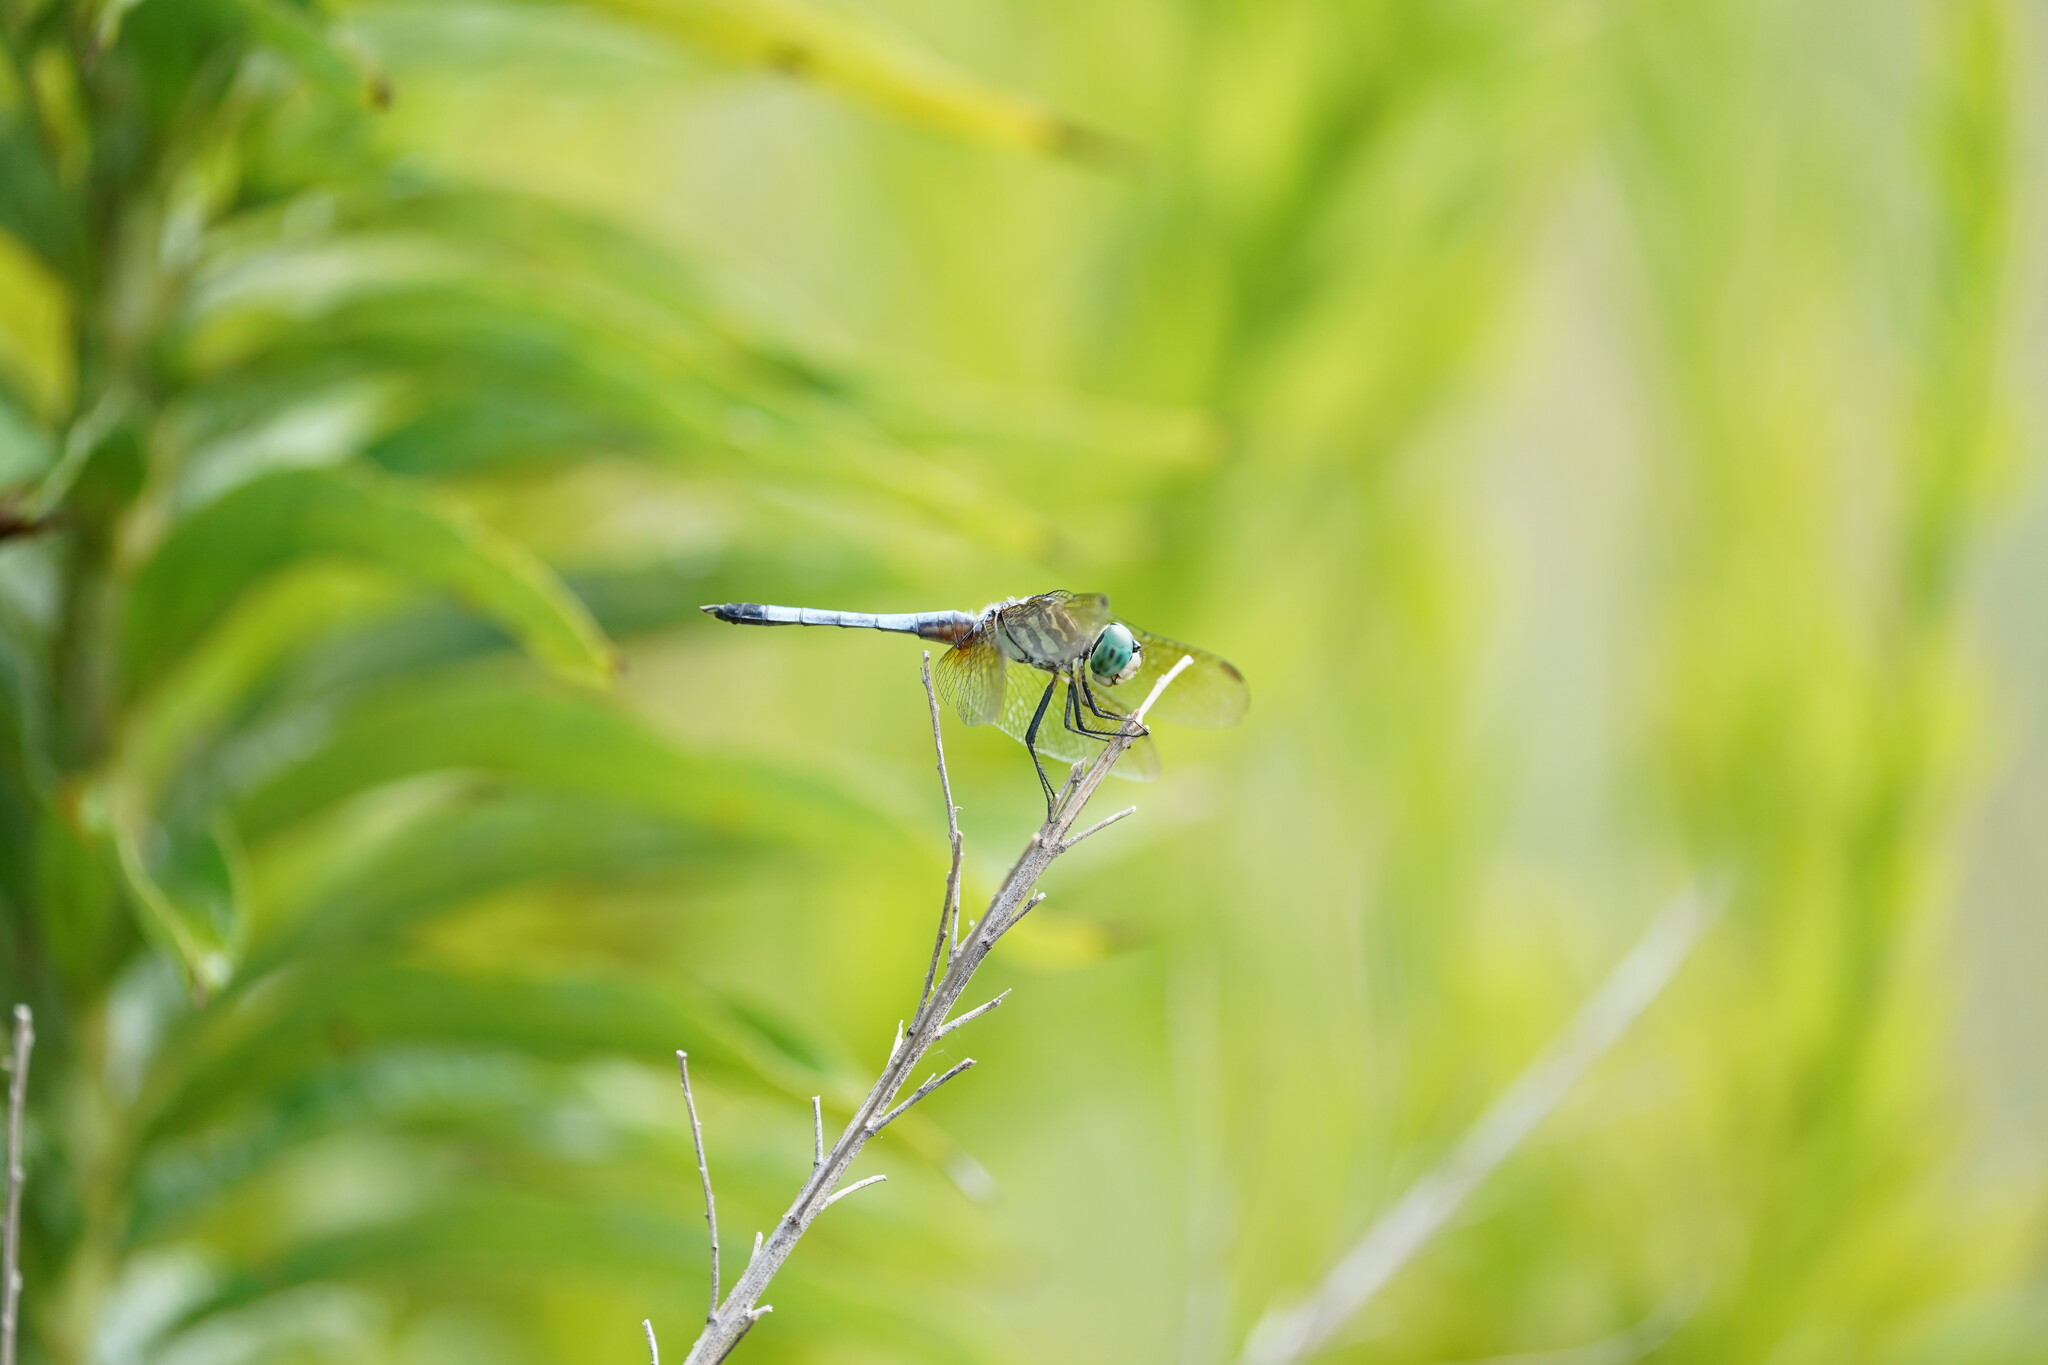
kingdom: Animalia
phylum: Arthropoda
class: Insecta
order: Odonata
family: Libellulidae
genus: Pachydiplax
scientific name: Pachydiplax longipennis
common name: Blue dasher
